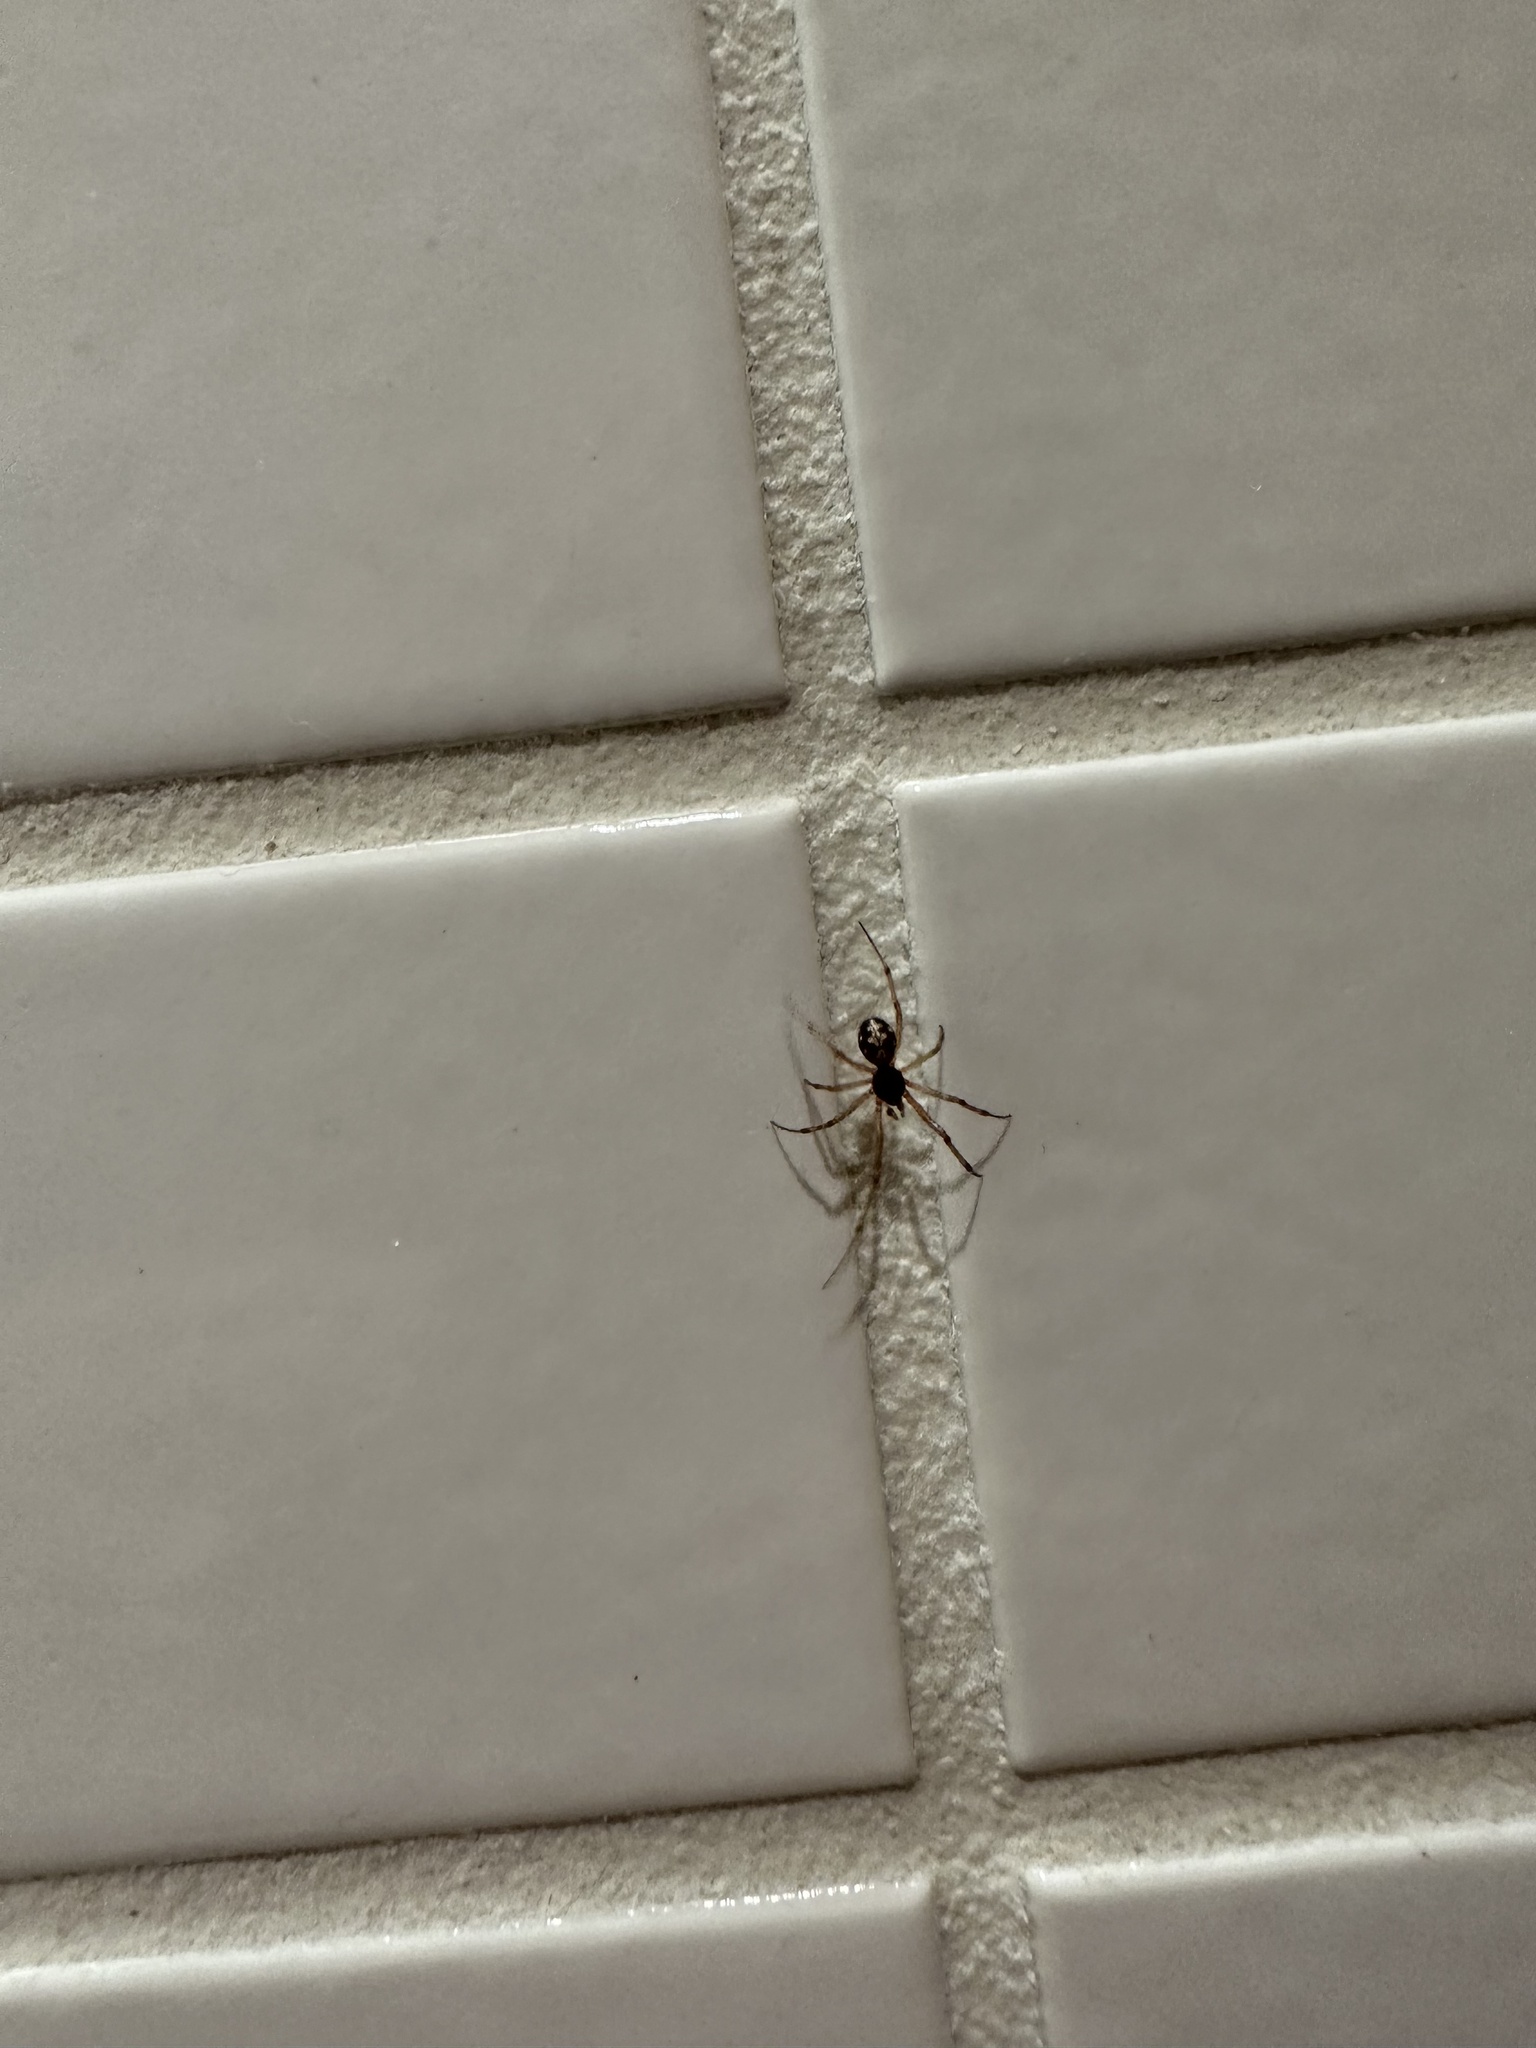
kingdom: Animalia
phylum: Arthropoda
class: Arachnida
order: Araneae
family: Theridiidae
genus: Steatoda
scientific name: Steatoda triangulosa
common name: Triangulate bud spider
